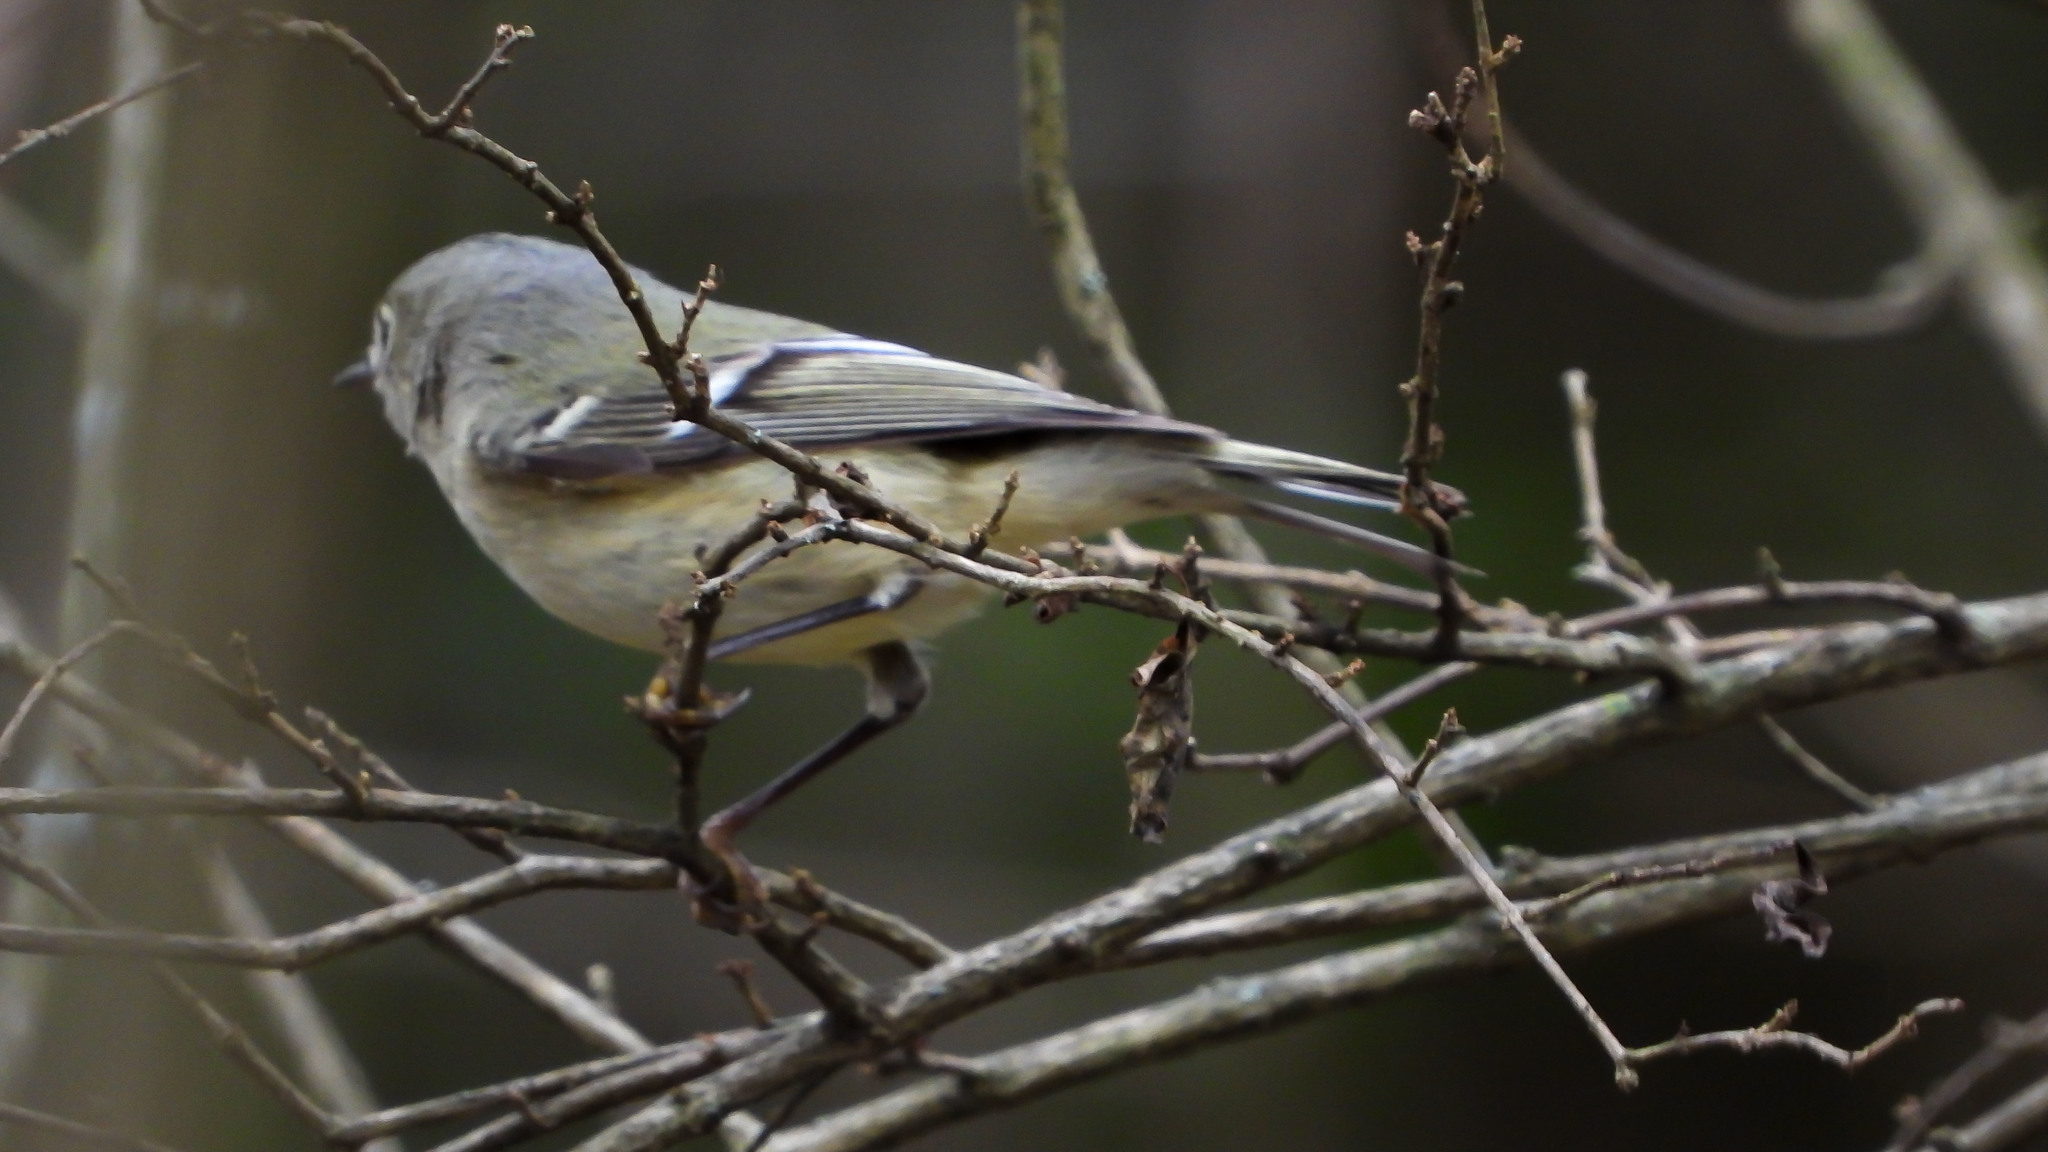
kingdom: Animalia
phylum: Chordata
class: Aves
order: Passeriformes
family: Regulidae
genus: Regulus
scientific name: Regulus calendula
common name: Ruby-crowned kinglet
